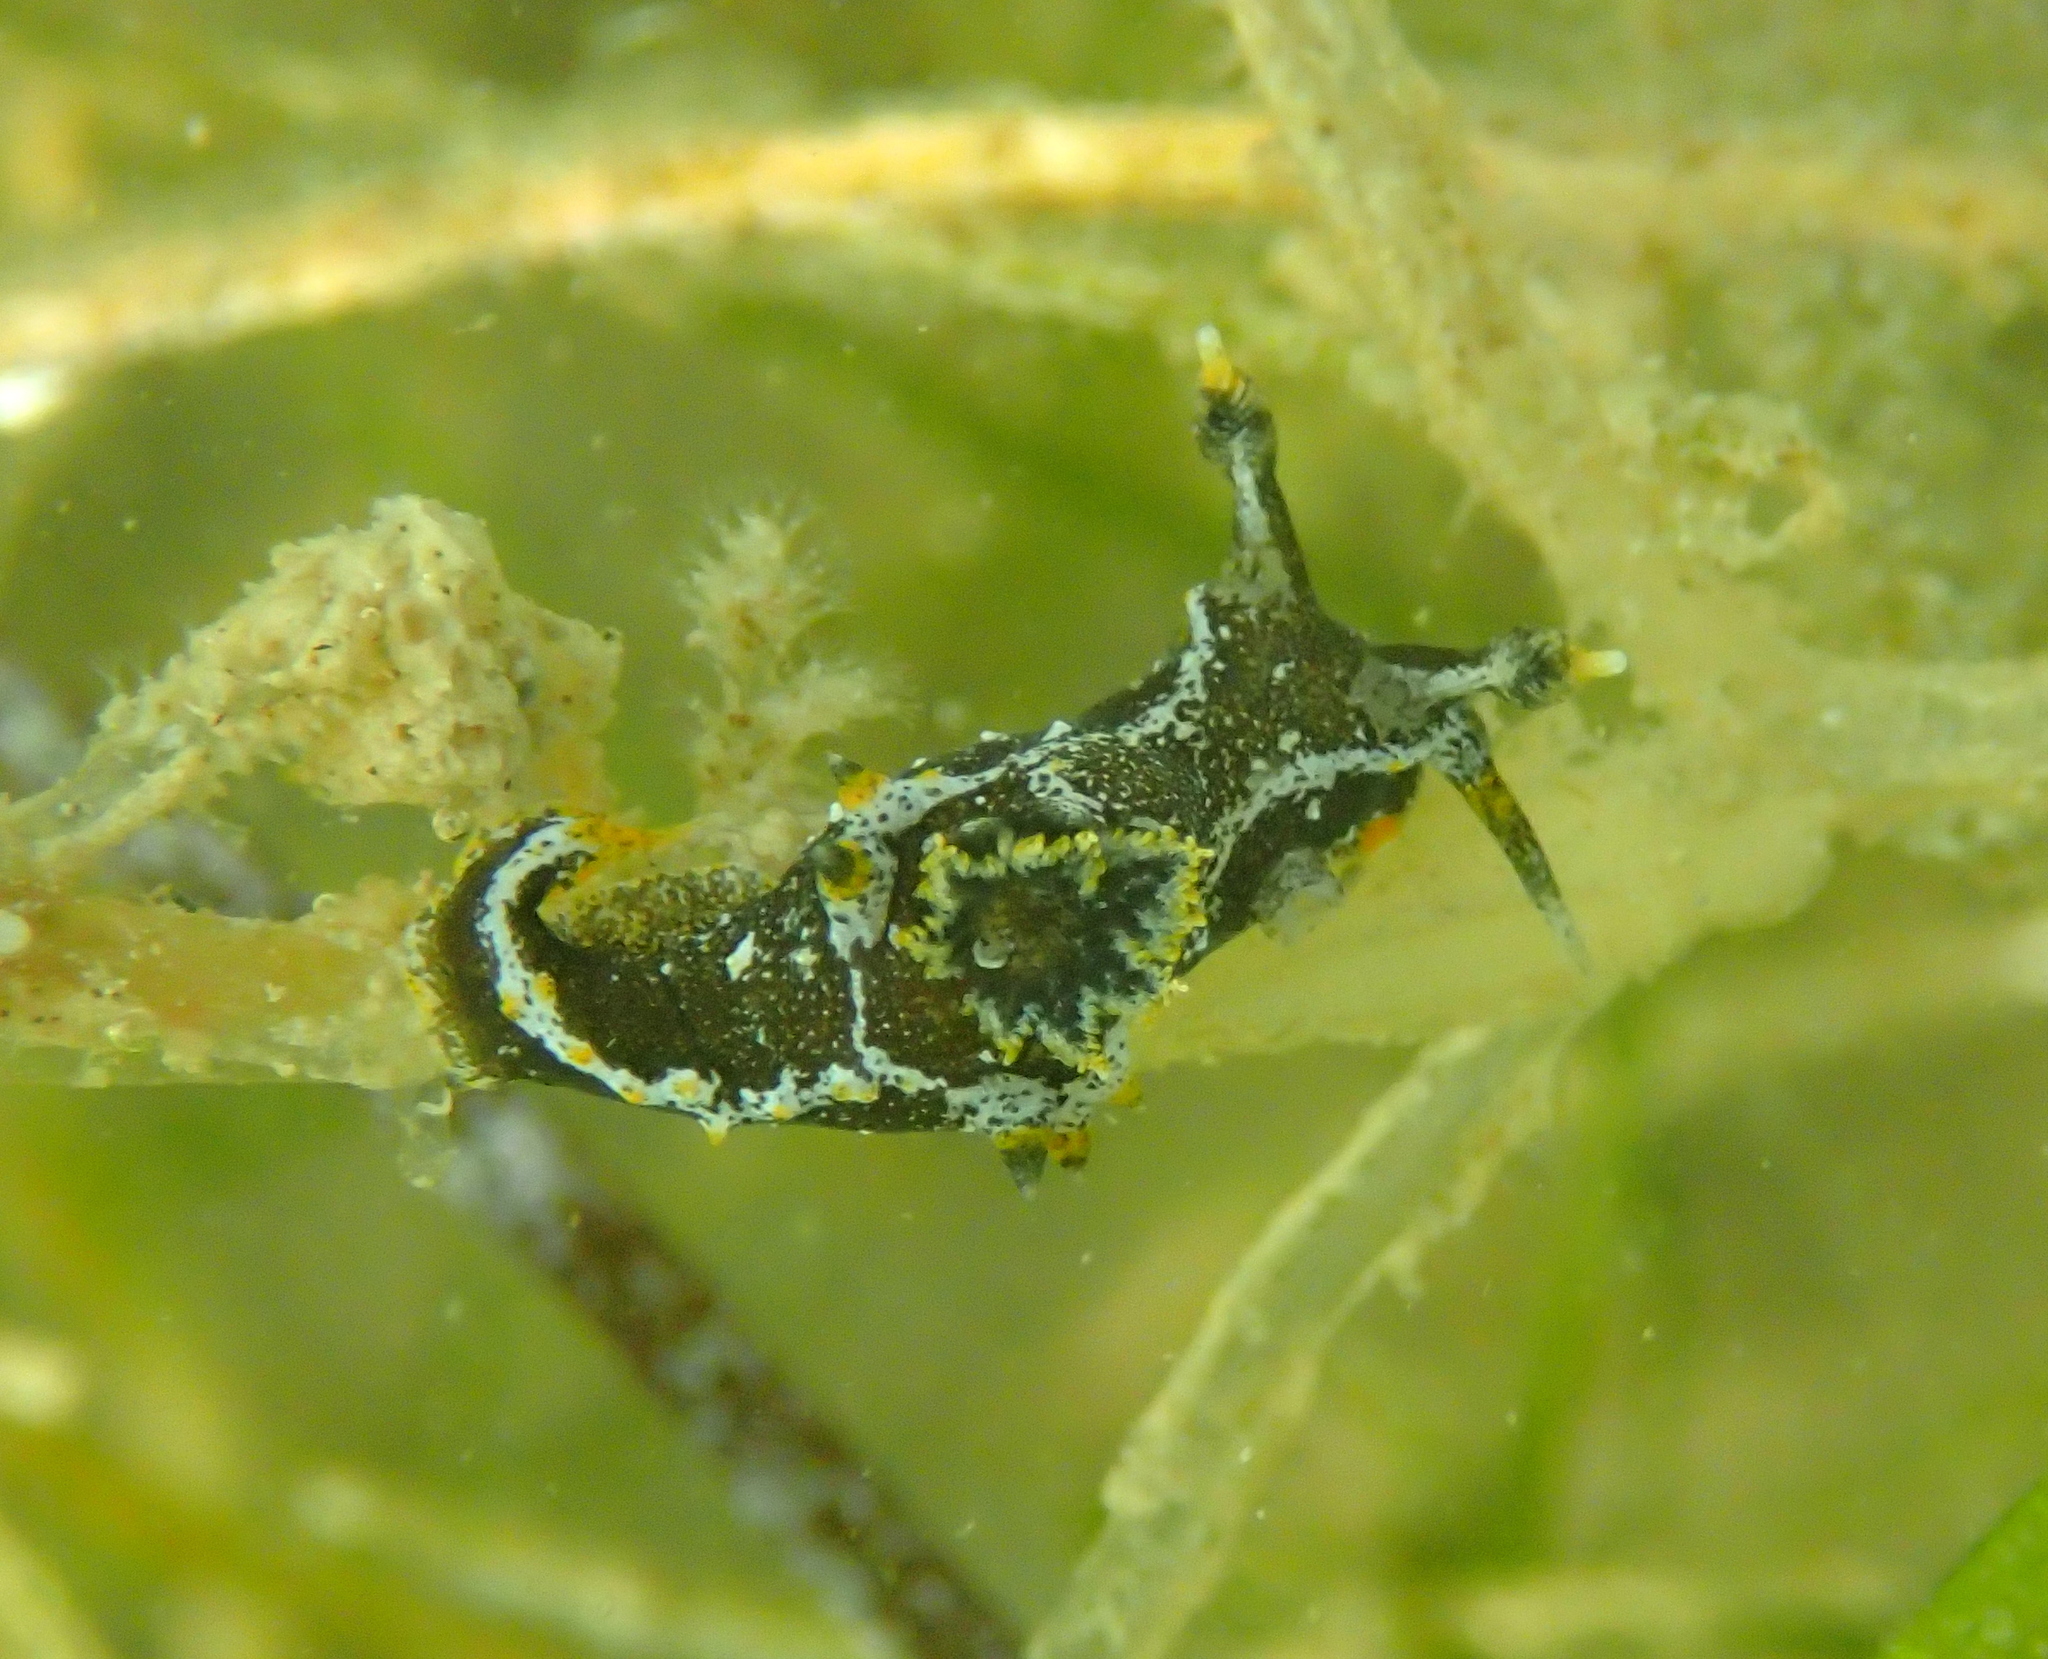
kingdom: Animalia
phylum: Mollusca
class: Gastropoda
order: Nudibranchia
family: Polyceridae
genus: Polycera
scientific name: Polycera hedgpethi
